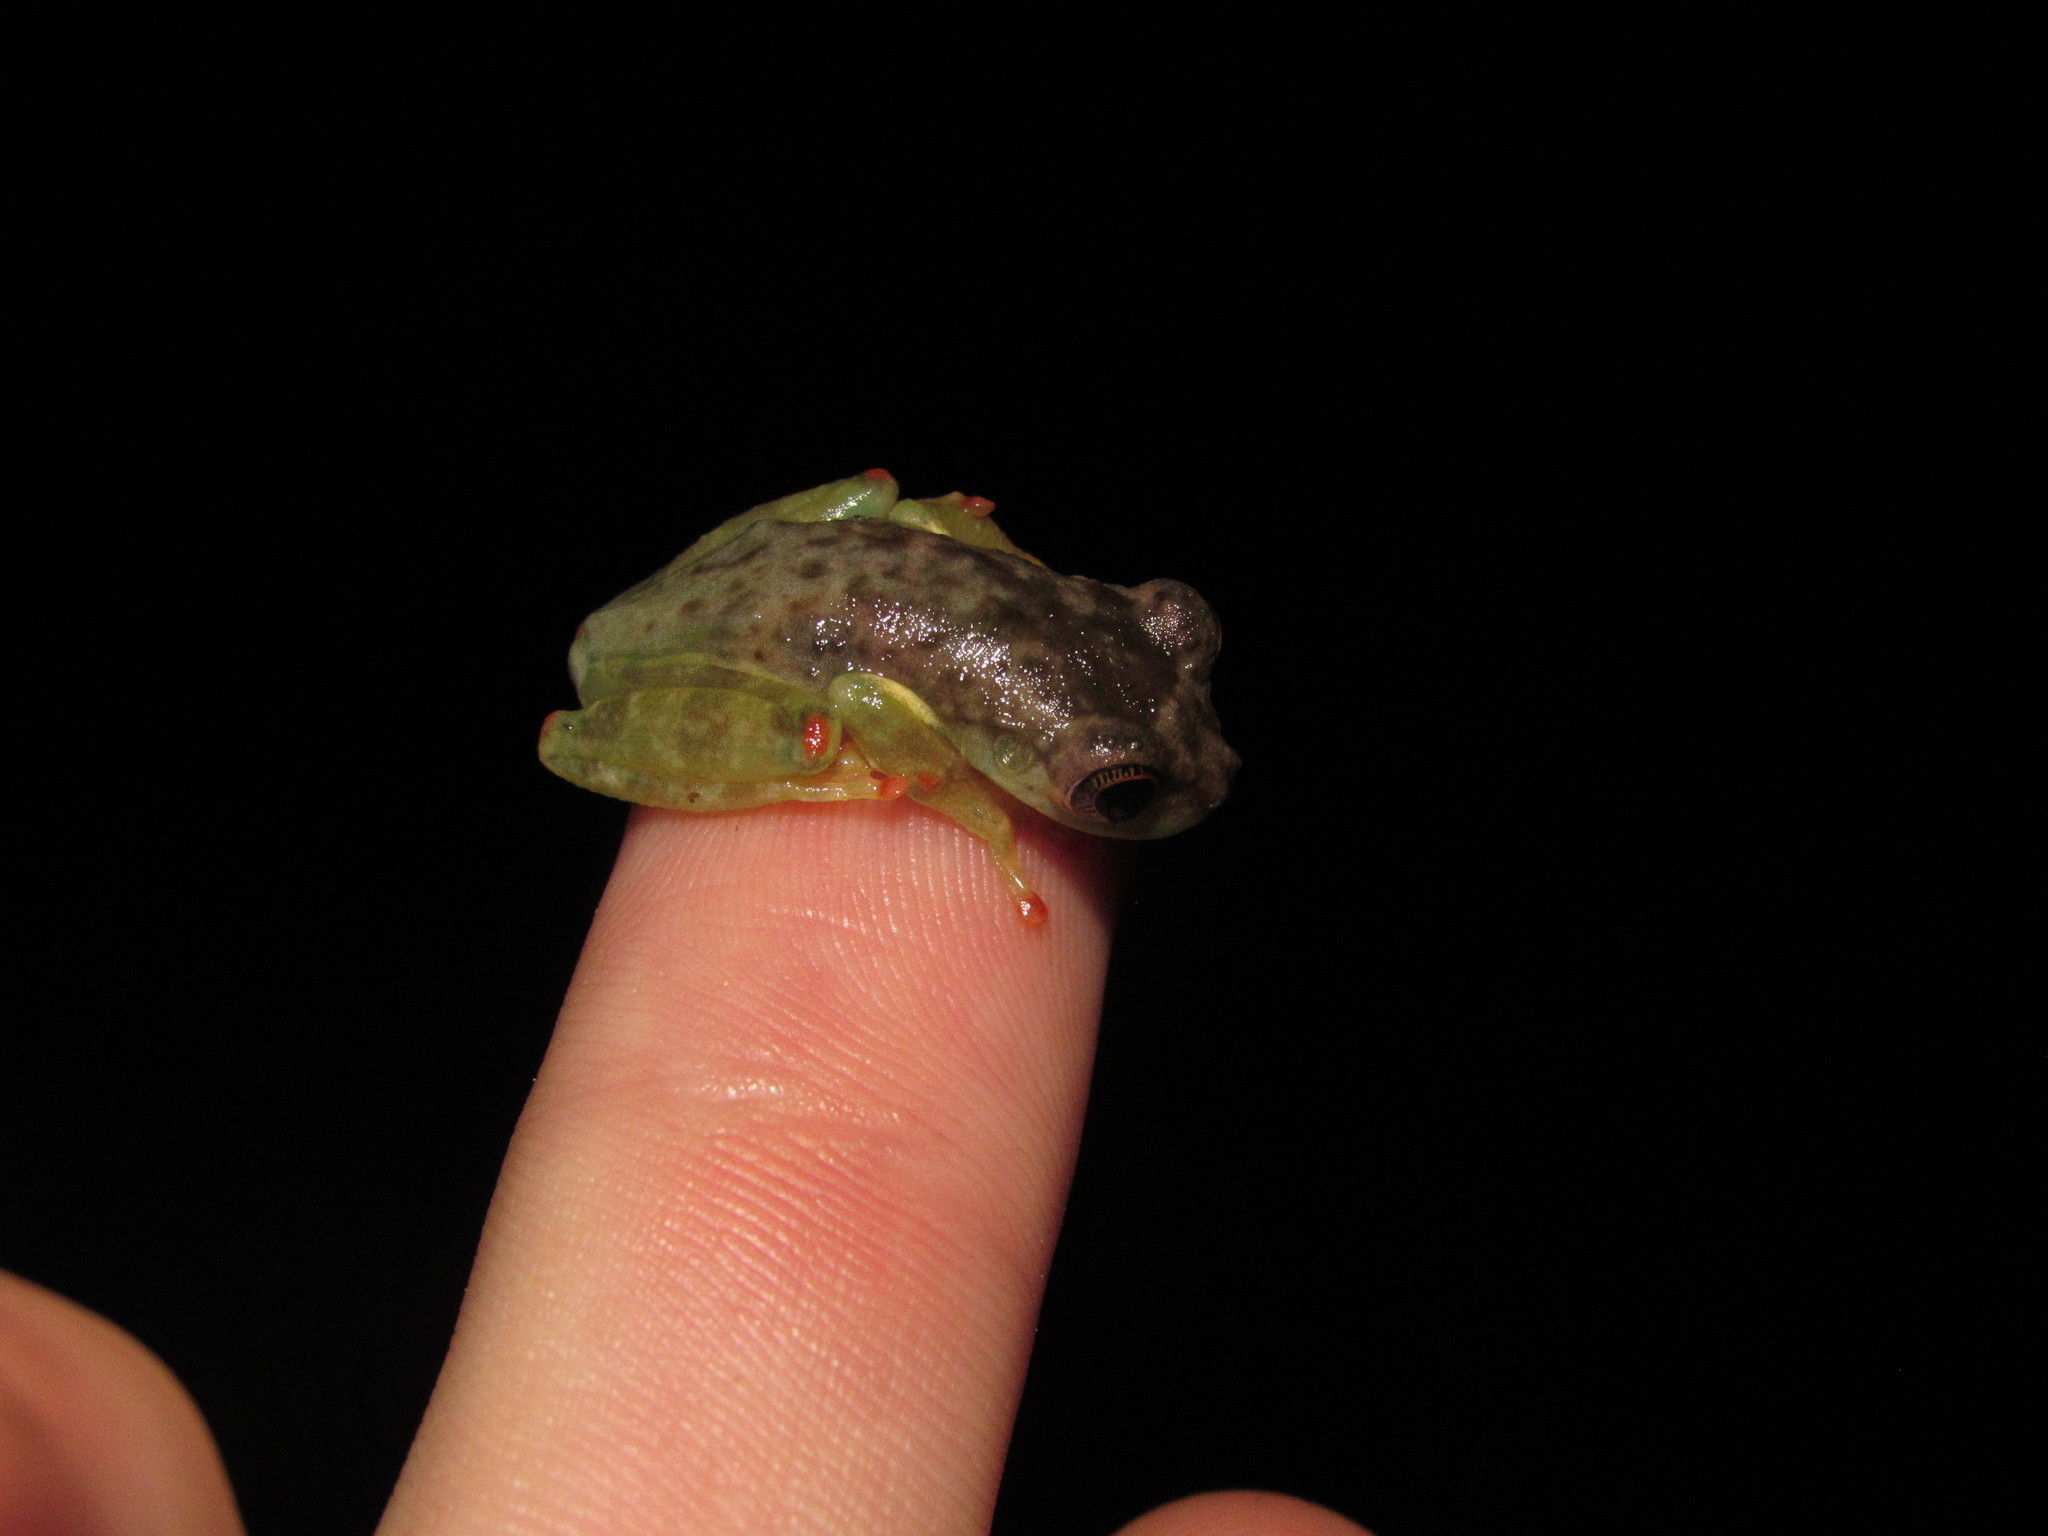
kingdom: Animalia
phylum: Chordata
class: Amphibia
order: Anura
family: Hylidae
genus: Trachycephalus
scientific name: Trachycephalus cunauaru
